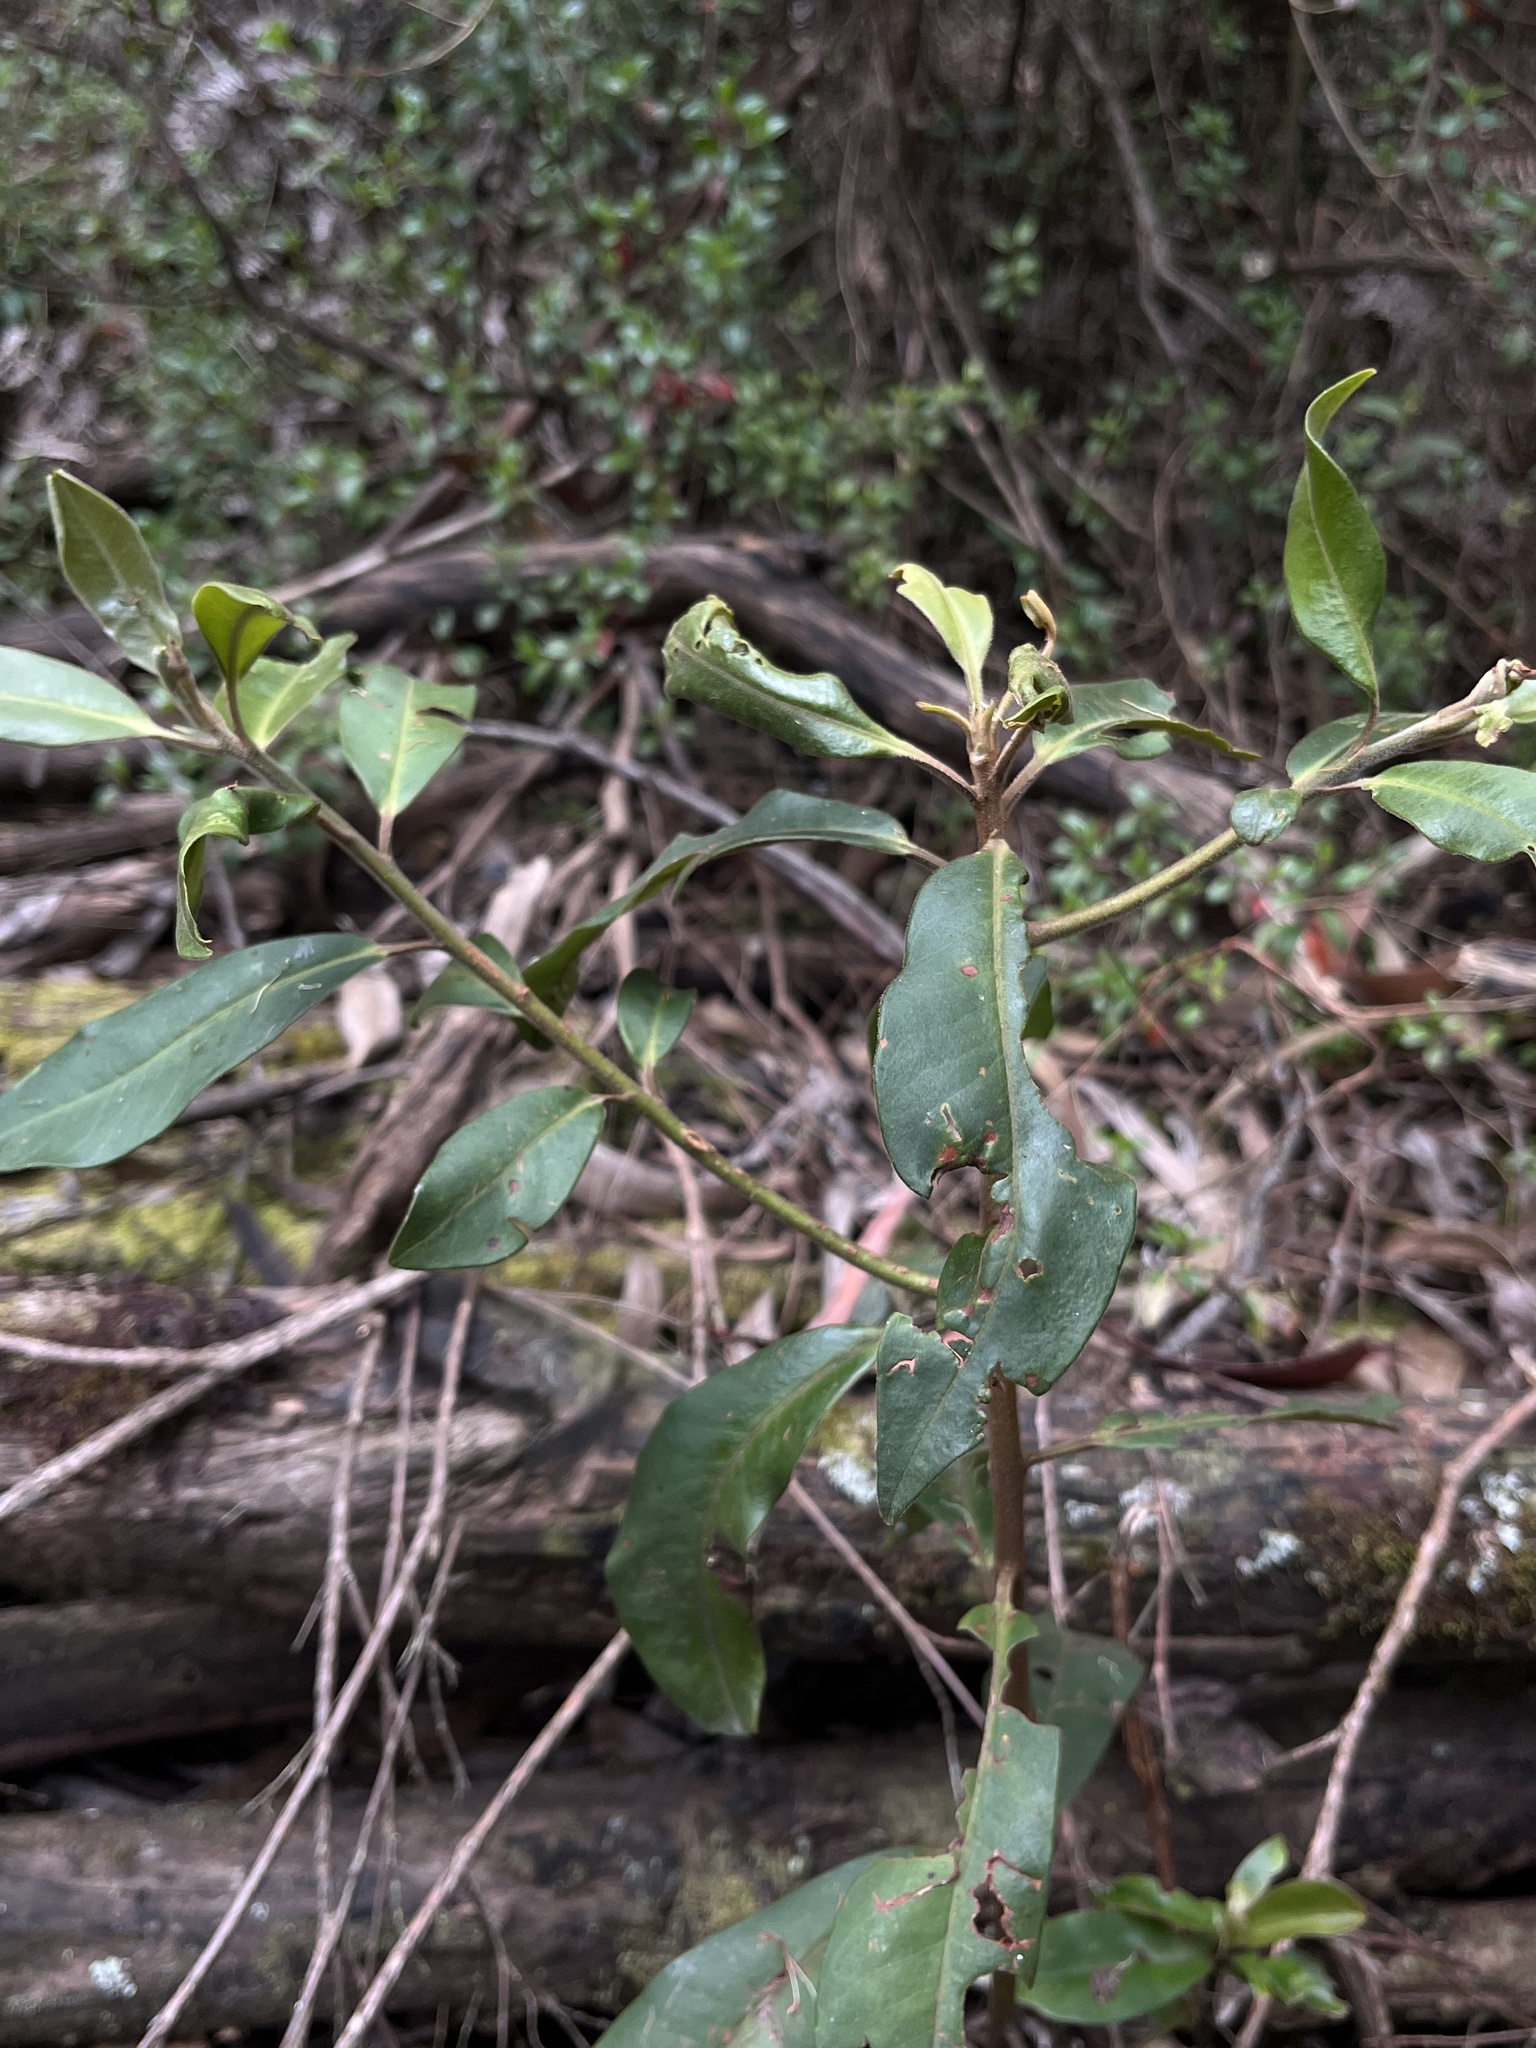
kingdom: Plantae
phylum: Tracheophyta
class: Magnoliopsida
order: Ericales
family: Primulaceae
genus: Myrsine
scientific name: Myrsine coriacea
